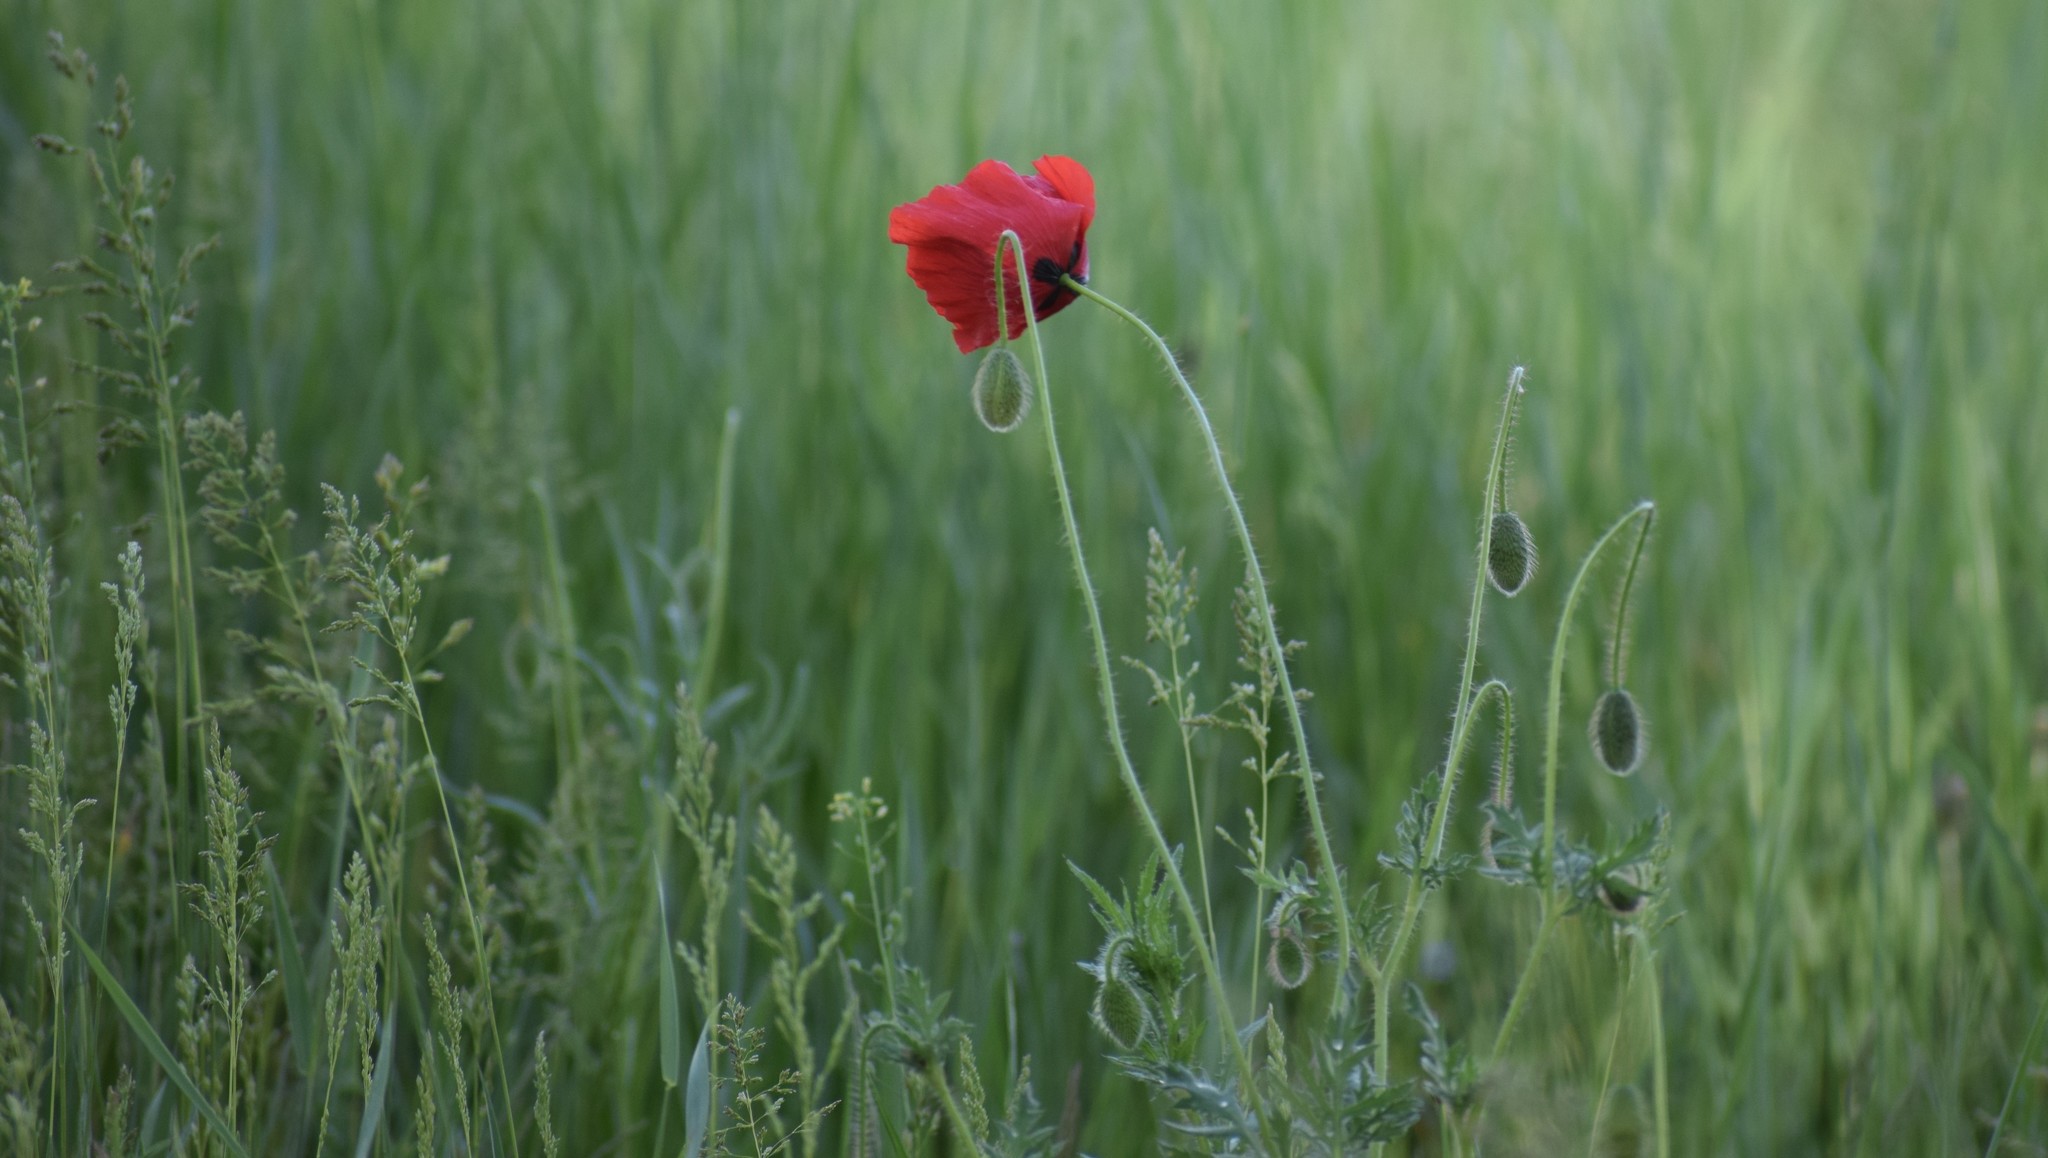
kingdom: Plantae
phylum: Tracheophyta
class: Magnoliopsida
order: Ranunculales
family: Papaveraceae
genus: Papaver
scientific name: Papaver rhoeas
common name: Corn poppy
